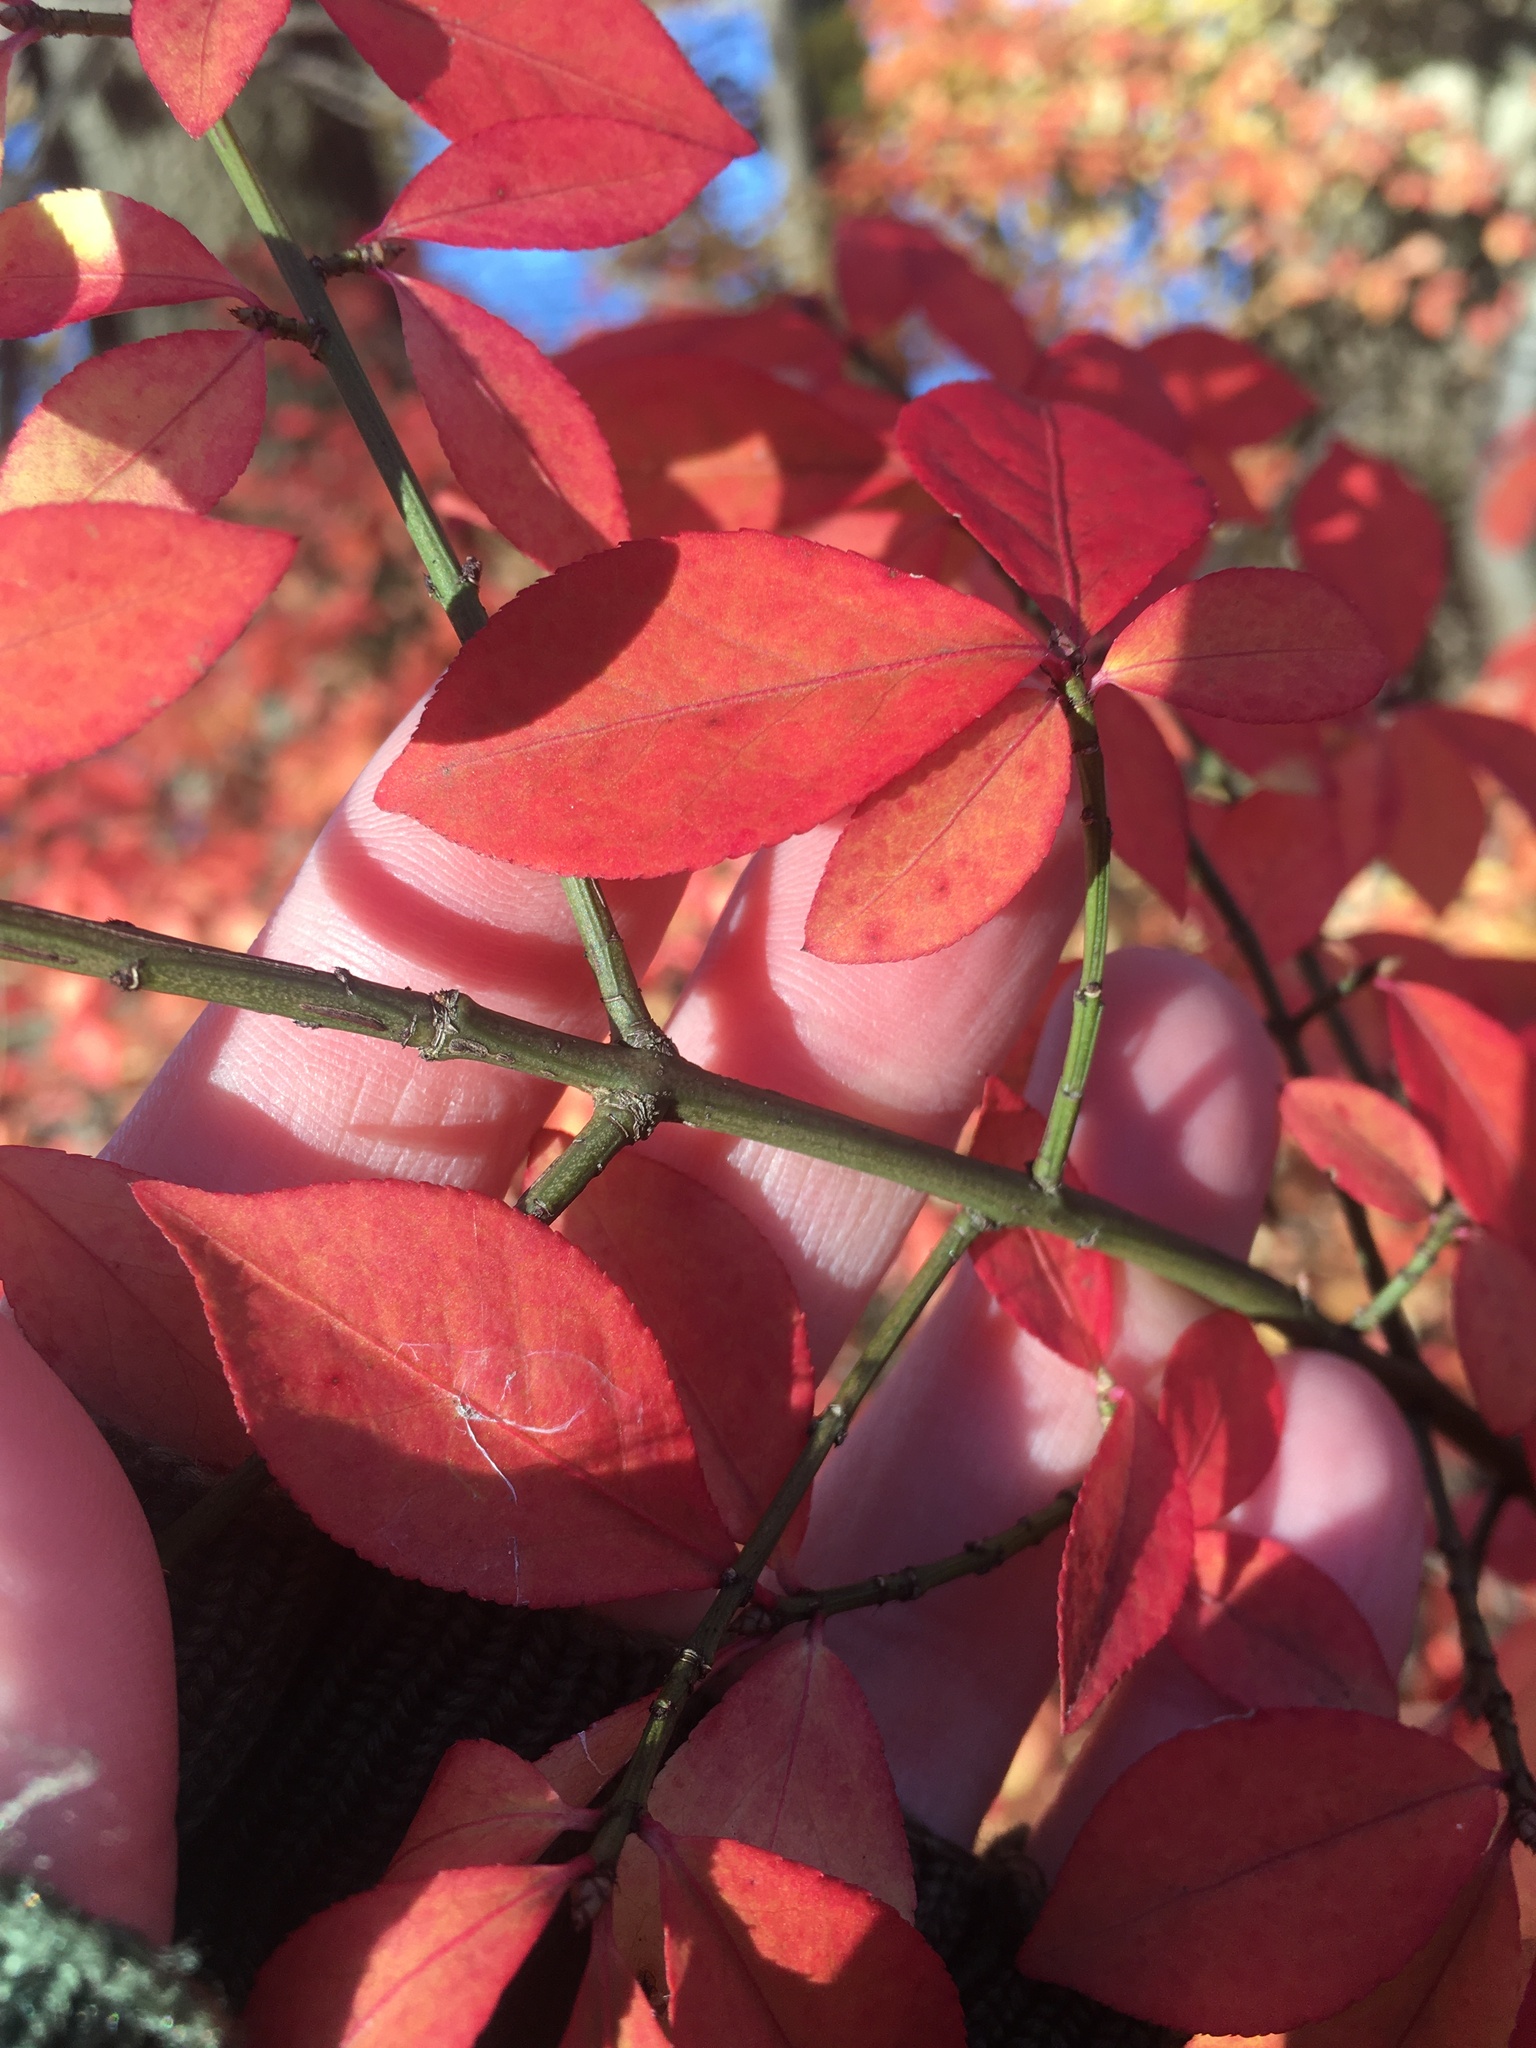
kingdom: Plantae
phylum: Tracheophyta
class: Magnoliopsida
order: Celastrales
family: Celastraceae
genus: Euonymus
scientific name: Euonymus alatus
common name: Winged euonymus
